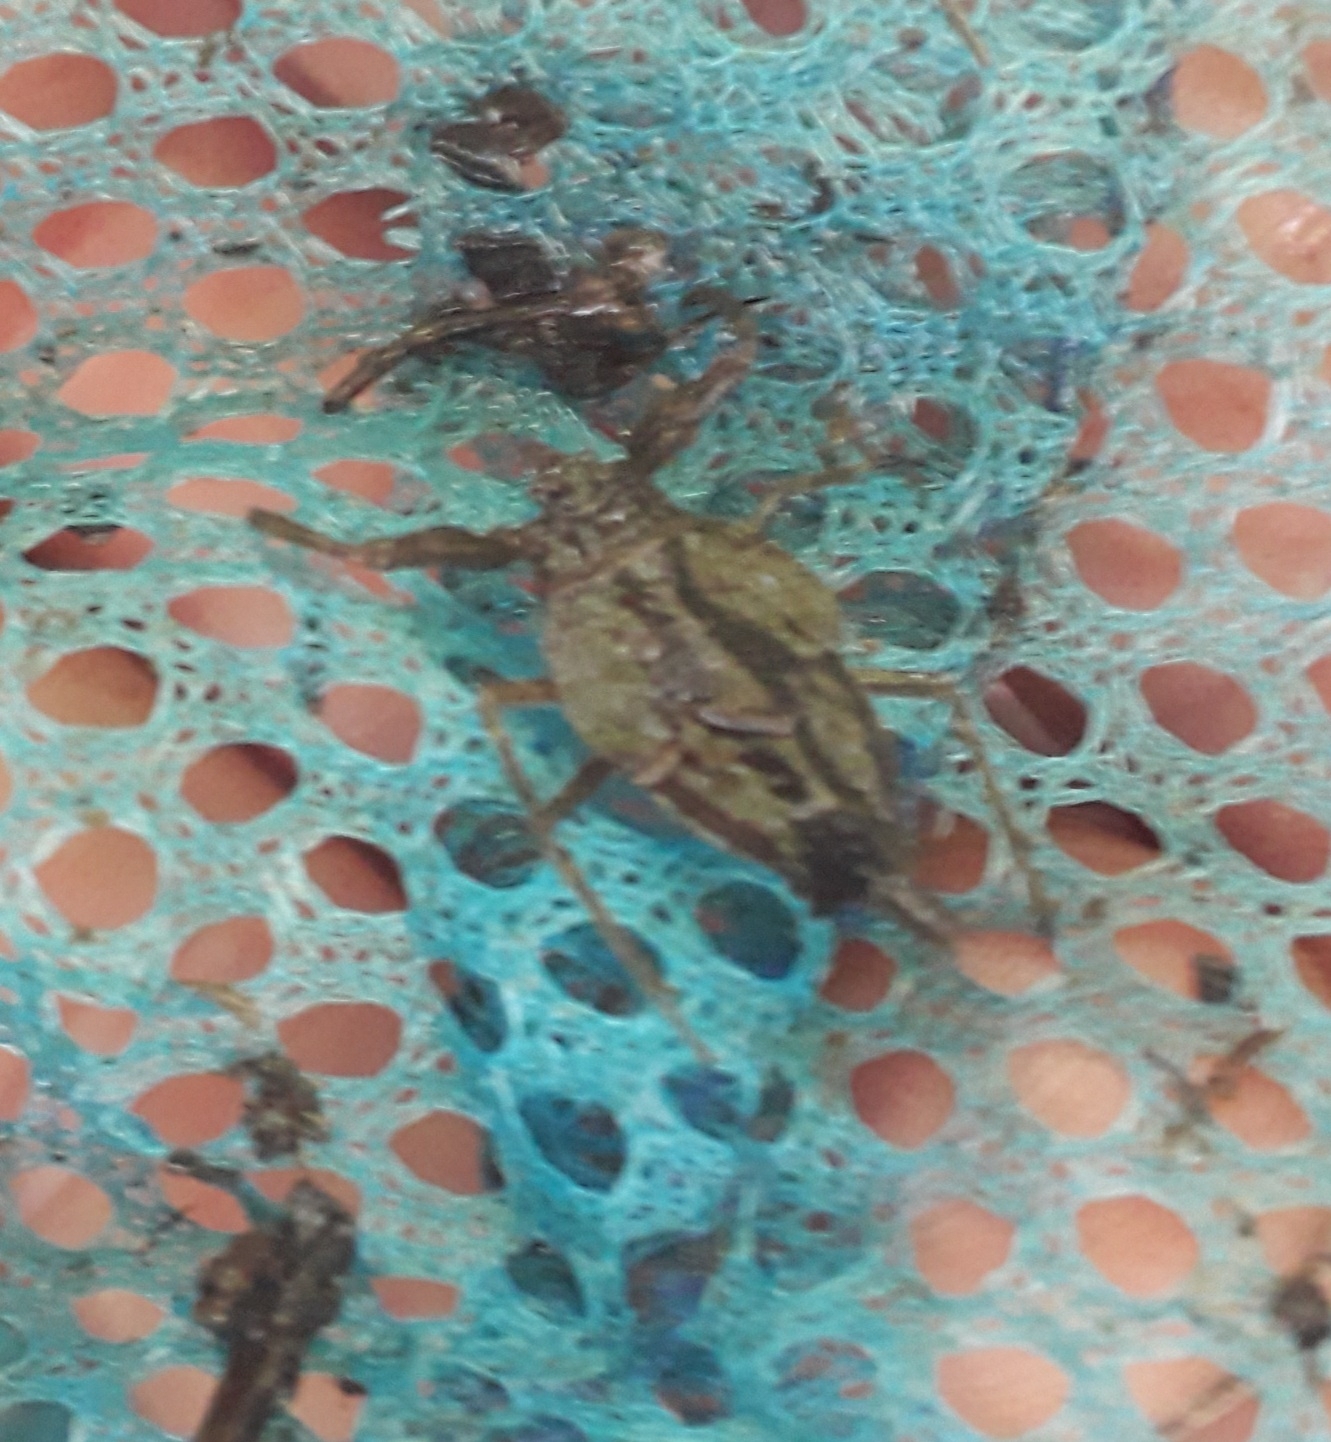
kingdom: Animalia
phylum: Arthropoda
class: Insecta
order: Hemiptera
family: Nepidae
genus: Nepa
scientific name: Nepa cinerea
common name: Water scorpion
